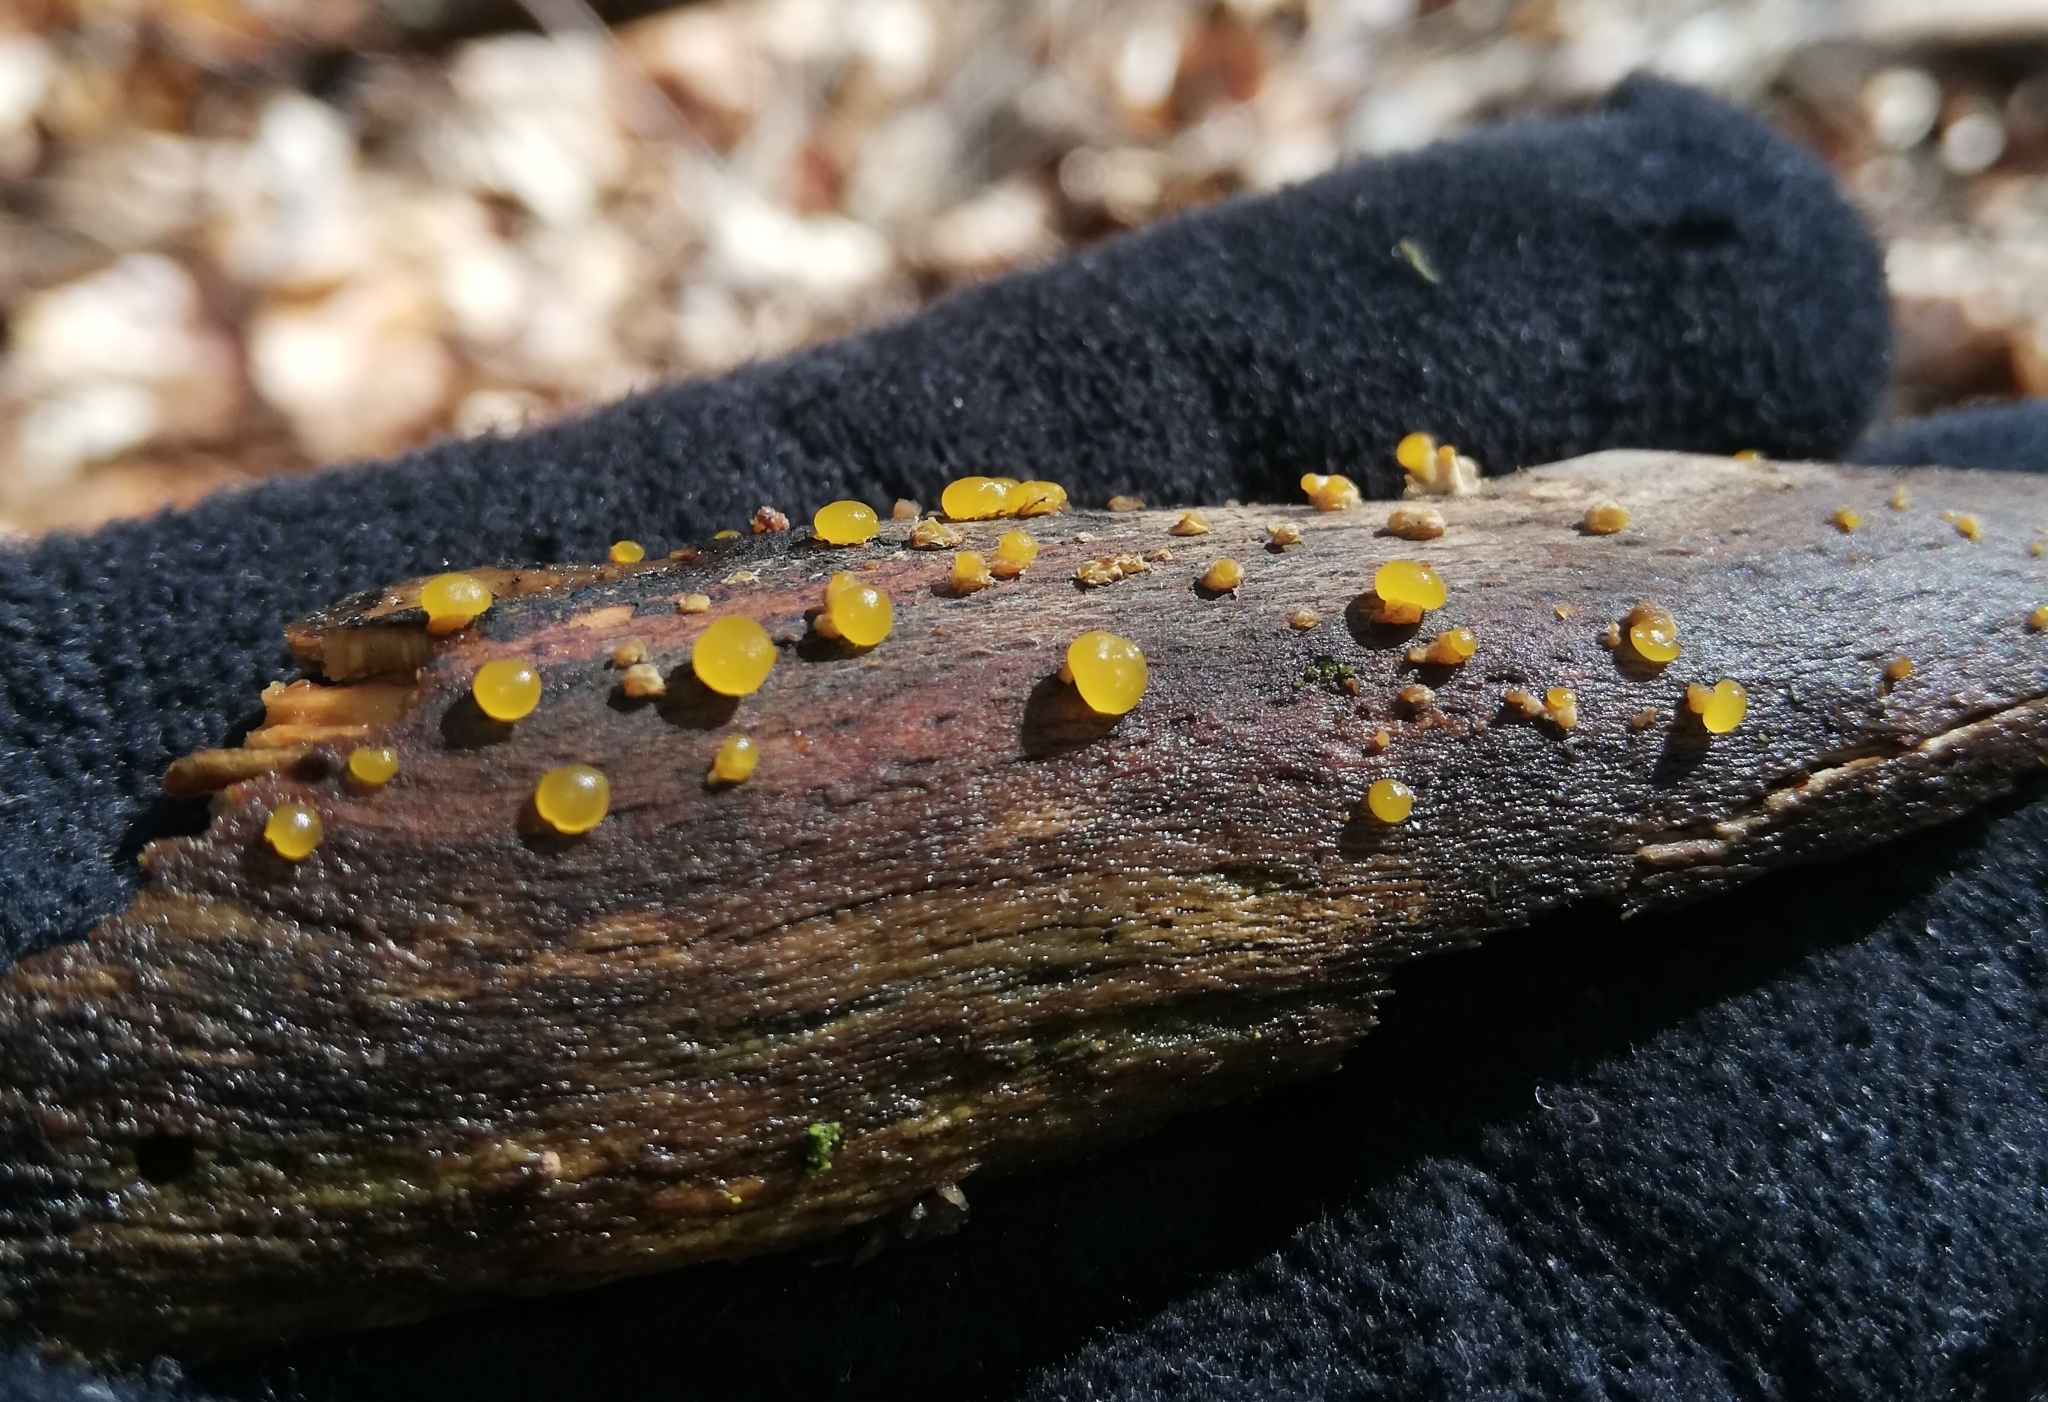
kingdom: Fungi
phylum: Basidiomycota
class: Dacrymycetes
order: Dacrymycetales
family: Dacrymycetaceae
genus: Dacrymyces
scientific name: Dacrymyces stillatus
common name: Common jelly spot
